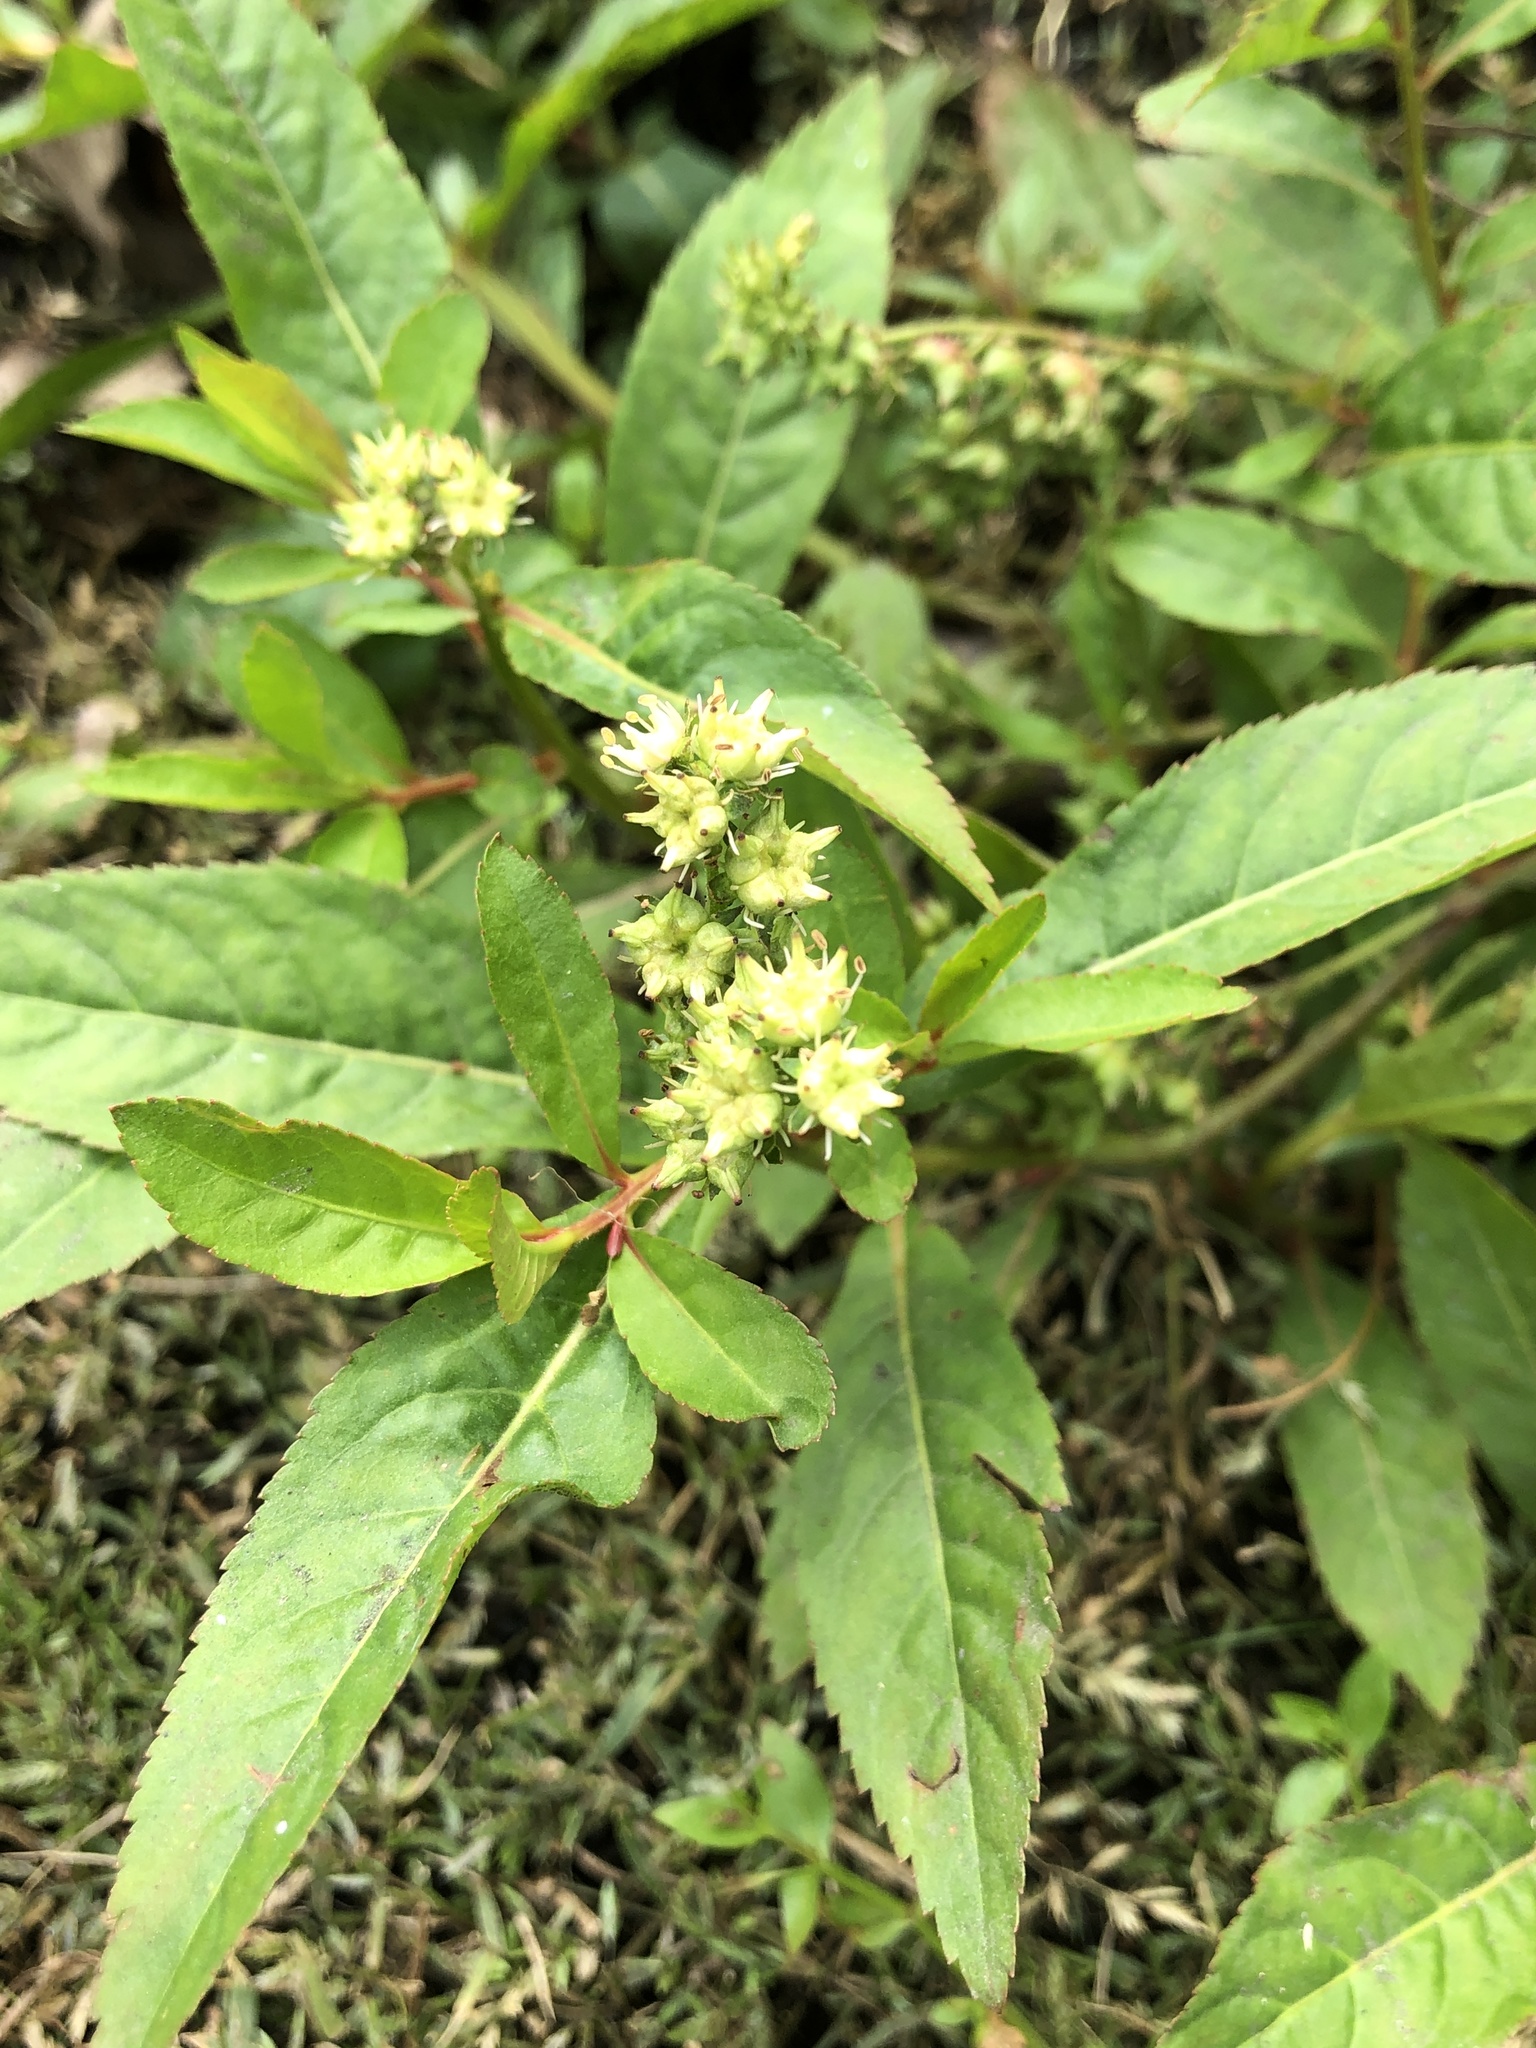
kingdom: Plantae
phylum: Tracheophyta
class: Magnoliopsida
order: Saxifragales
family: Penthoraceae
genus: Penthorum
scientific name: Penthorum sedoides
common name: Ditch stonecrop
